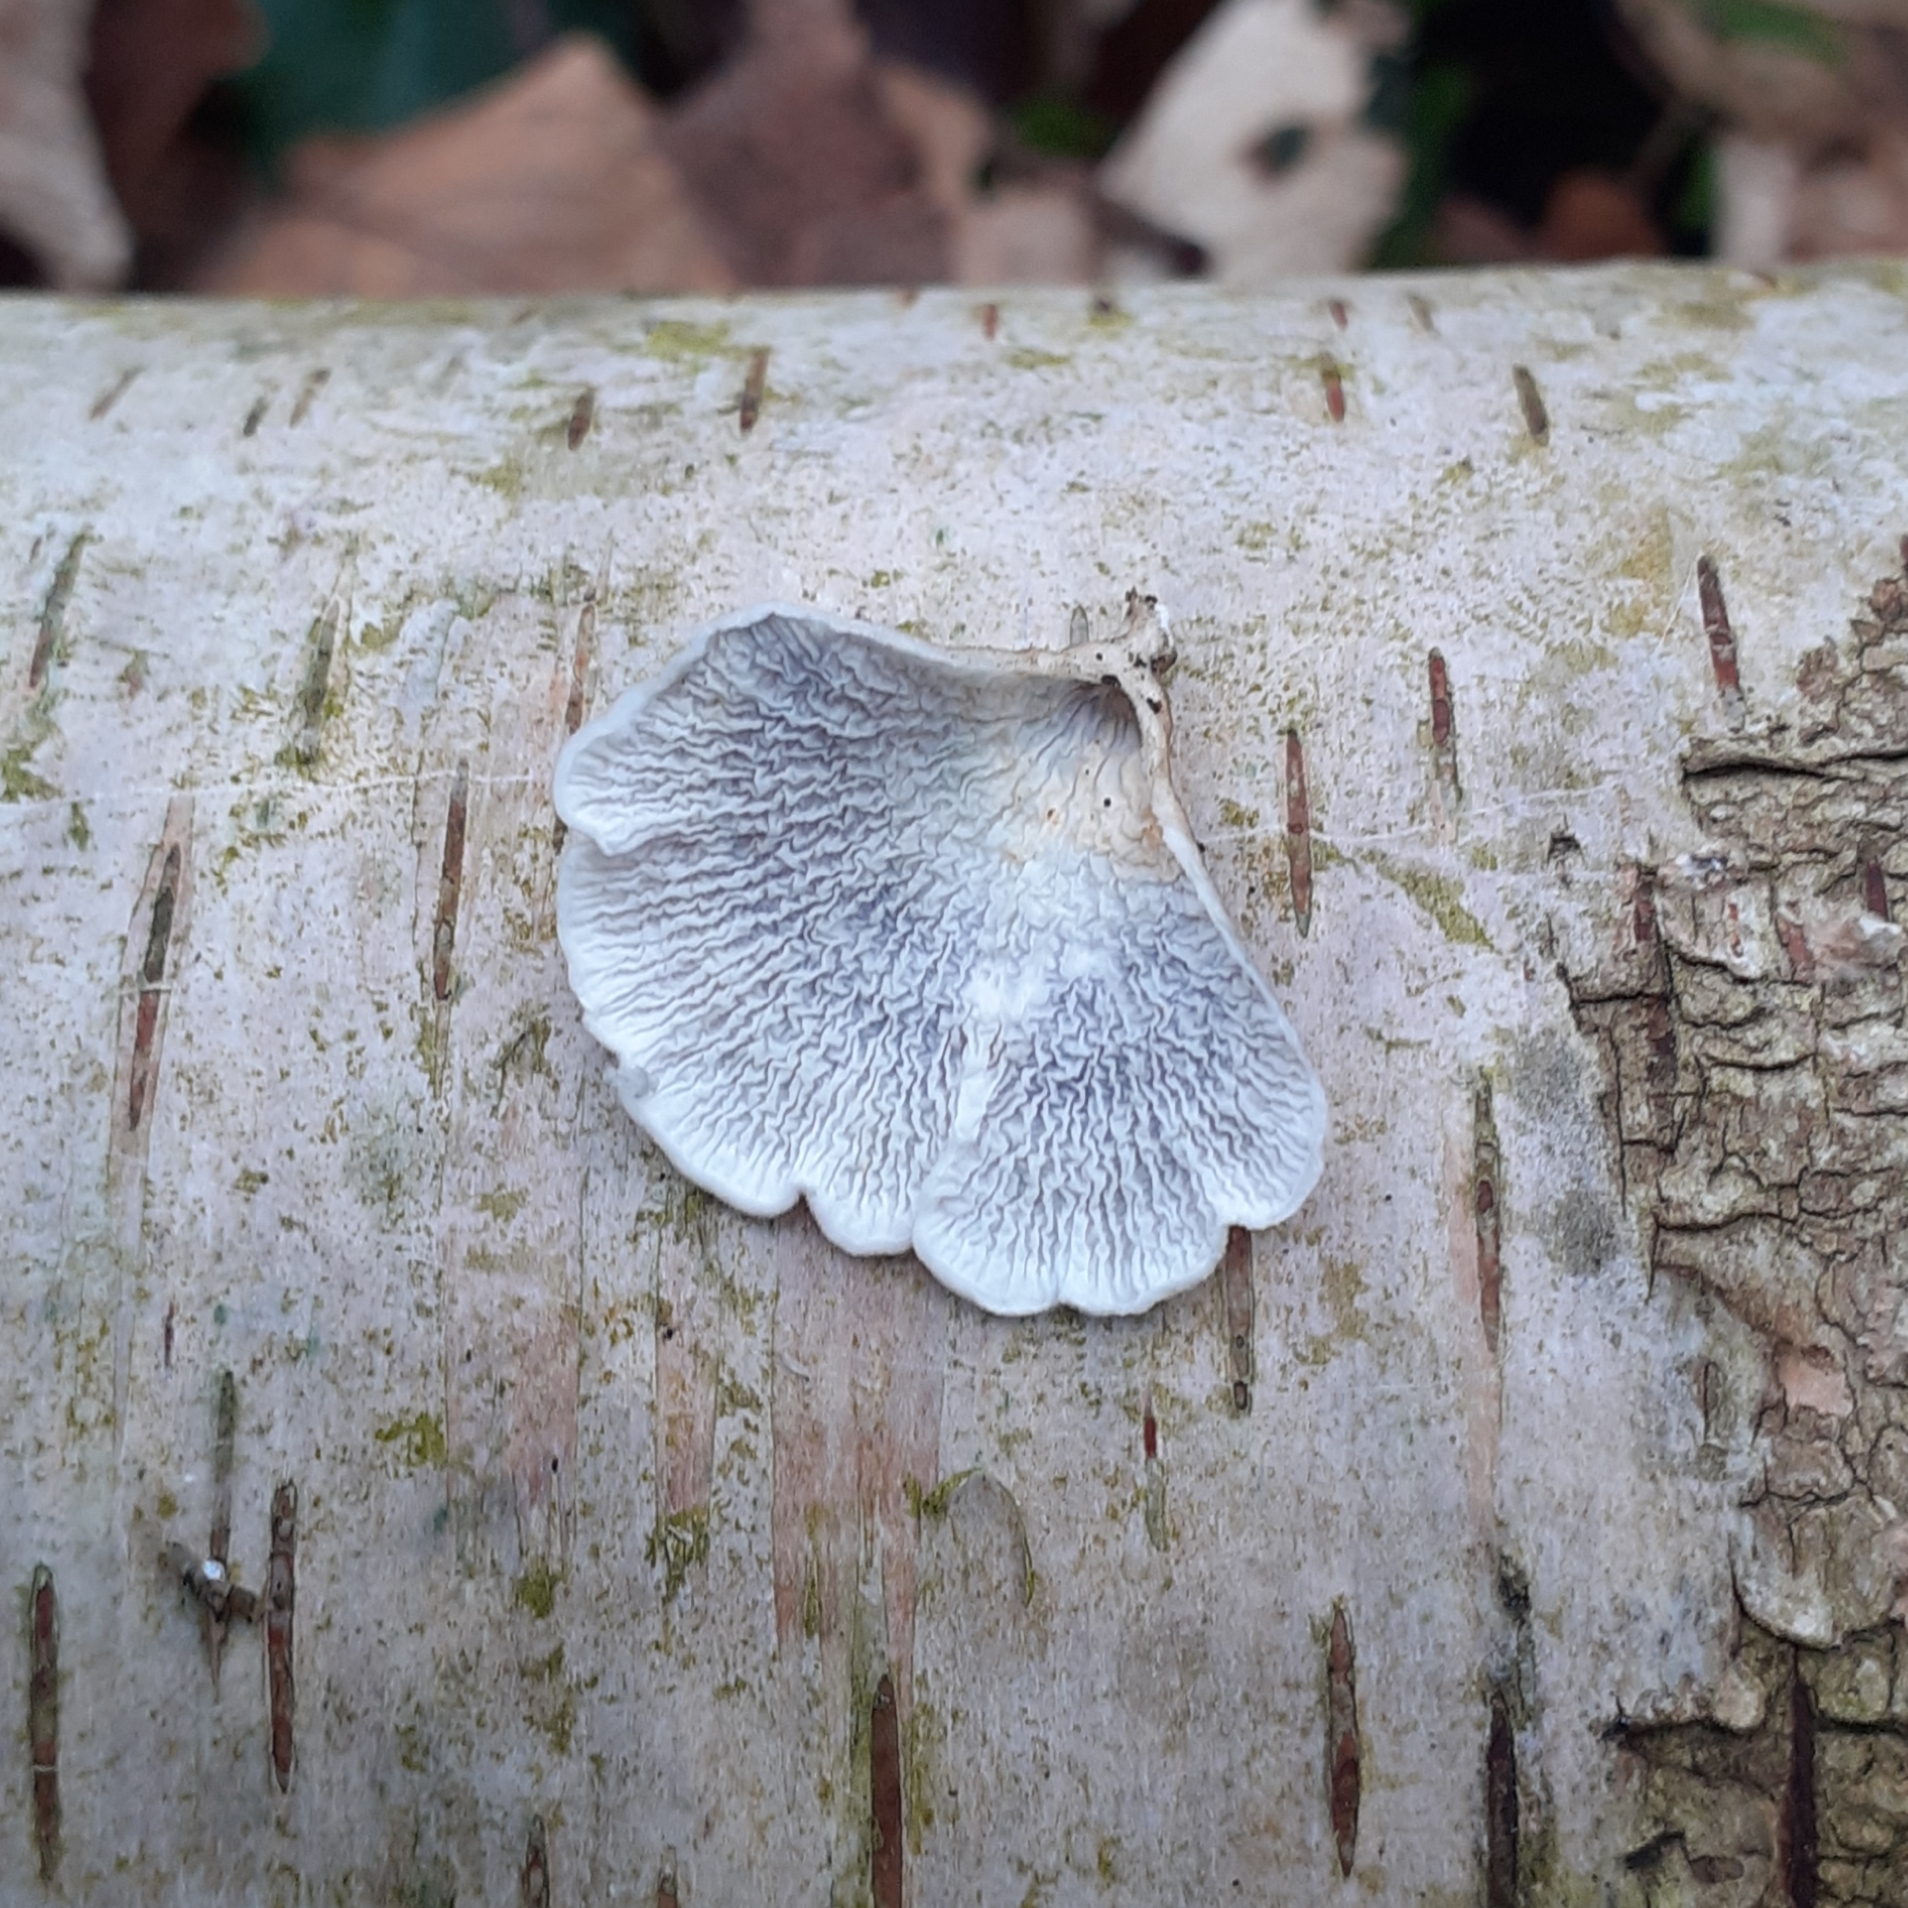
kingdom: Fungi
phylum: Basidiomycota
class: Agaricomycetes
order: Amylocorticiales
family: Amylocorticiaceae
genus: Plicaturopsis
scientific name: Plicaturopsis crispa
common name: Crimped gill
